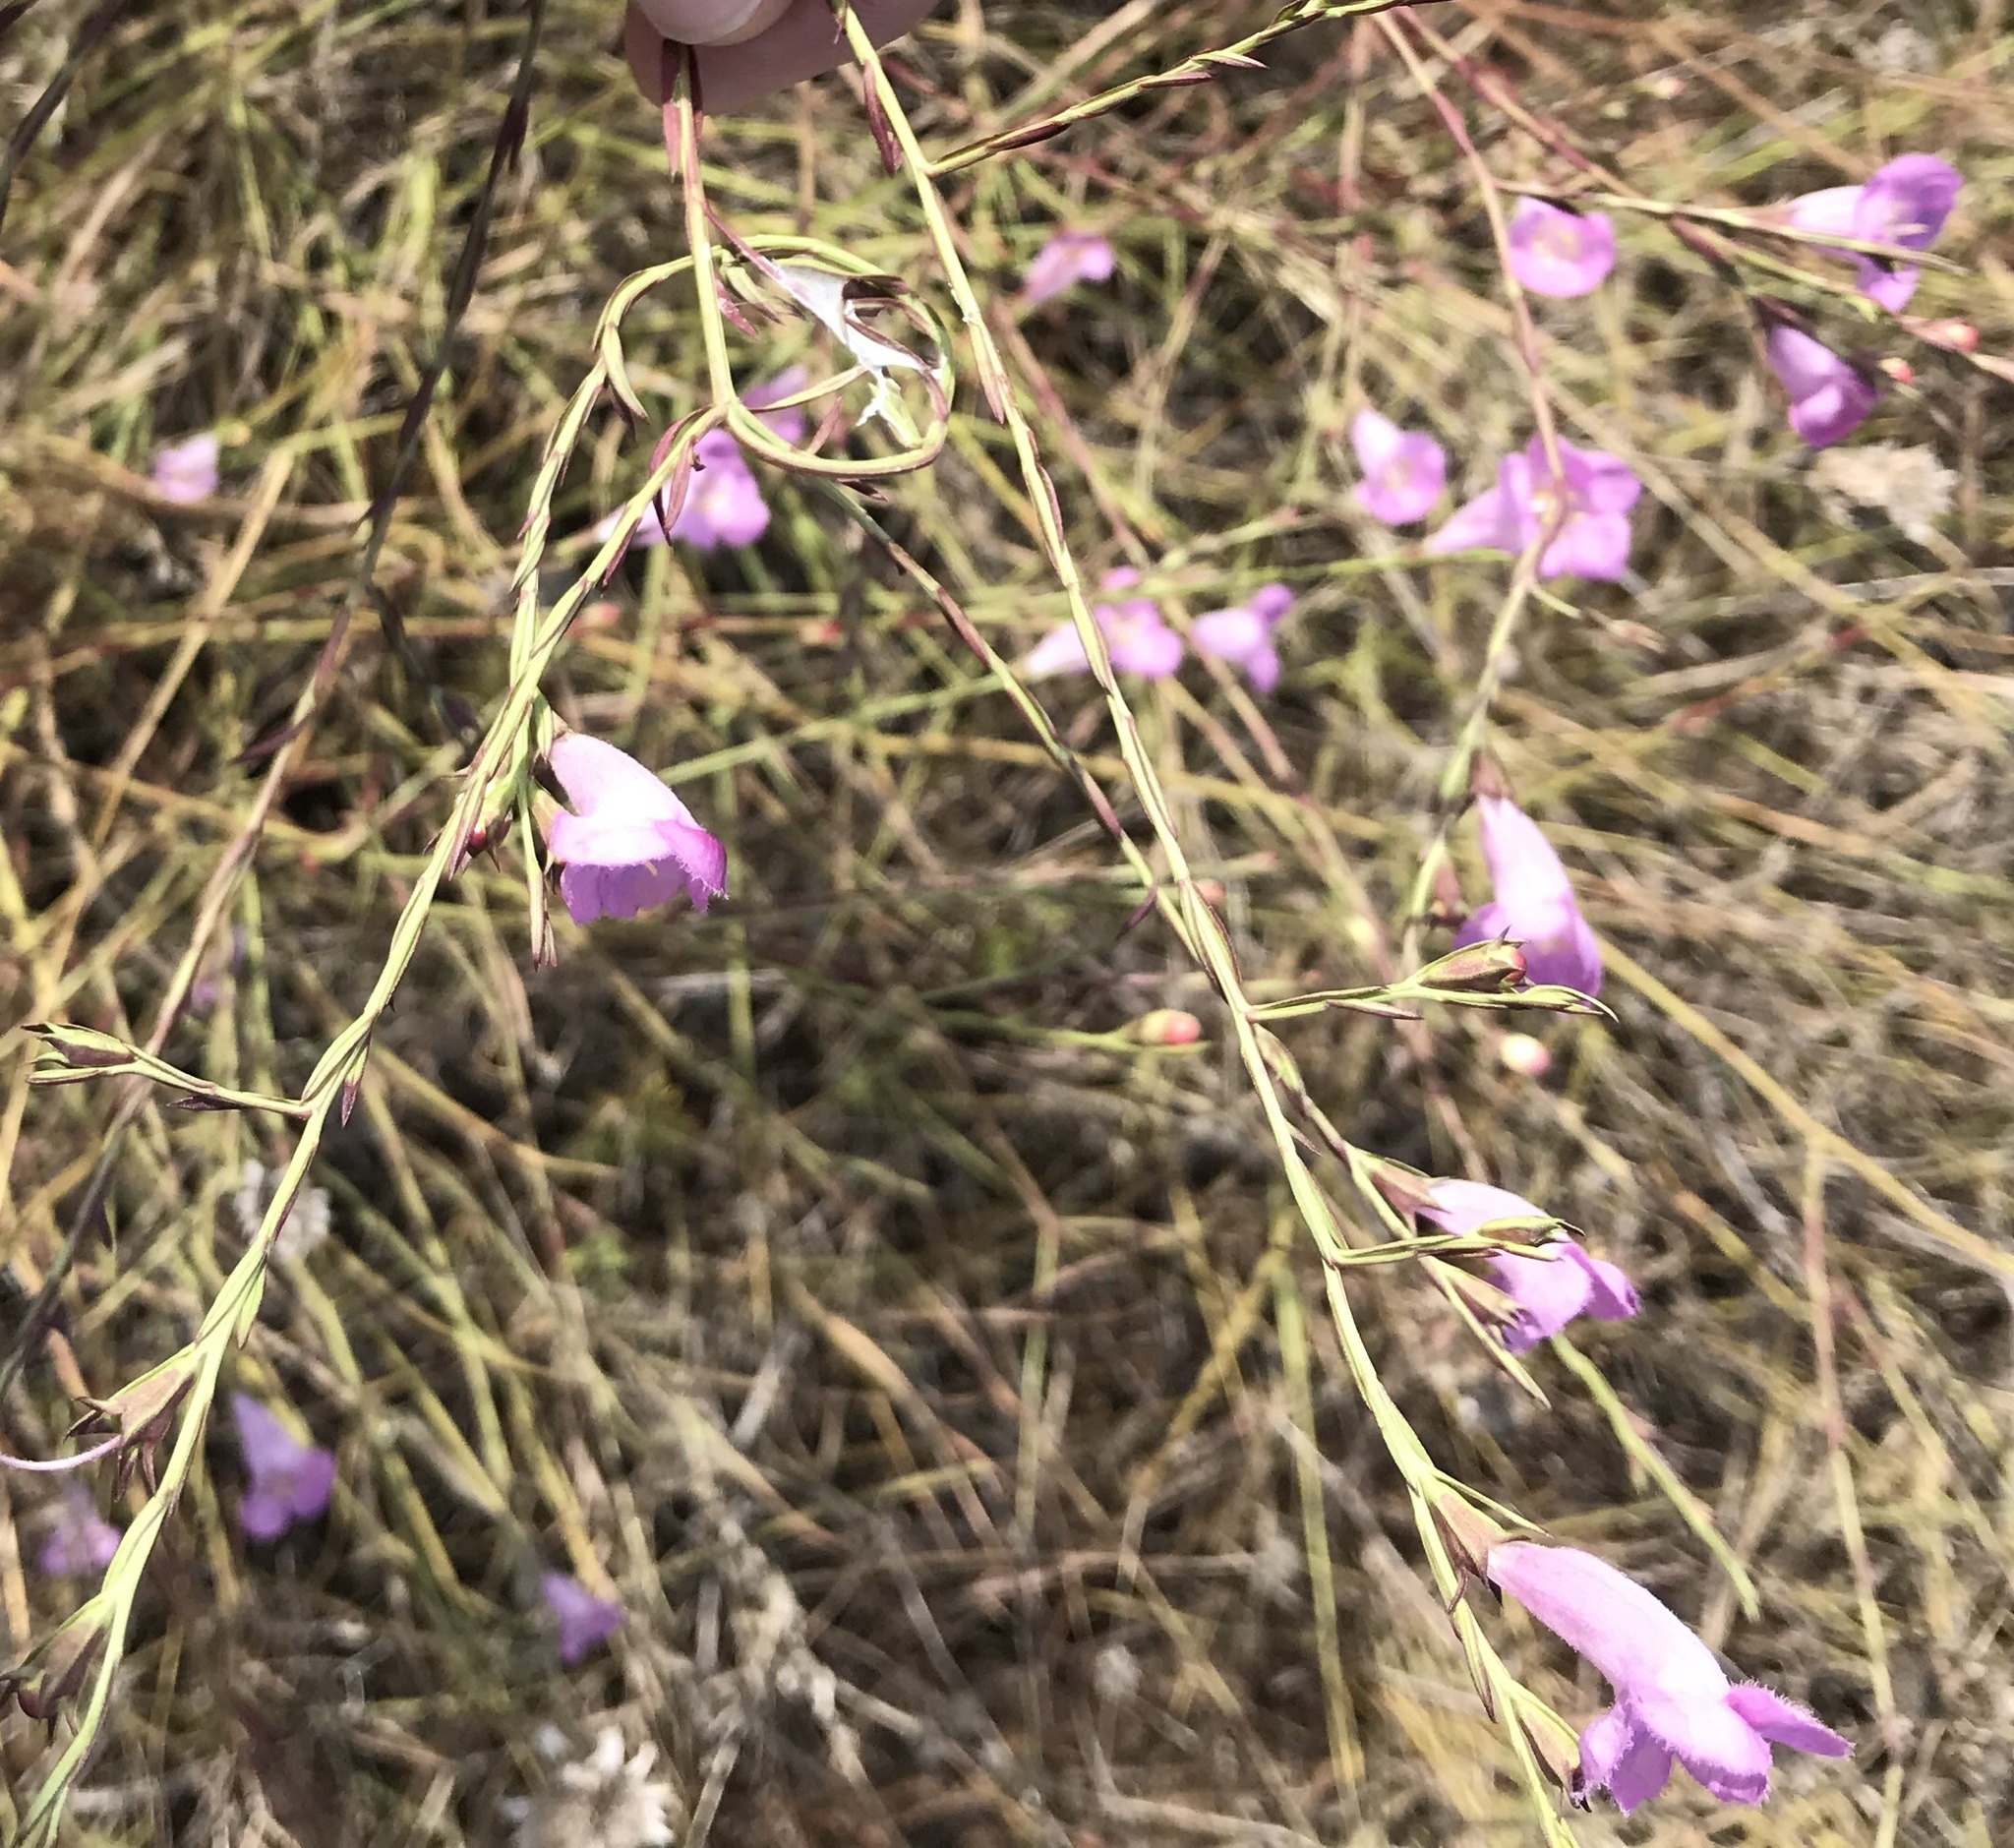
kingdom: Plantae
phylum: Tracheophyta
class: Magnoliopsida
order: Lamiales
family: Orobanchaceae
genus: Agalinis
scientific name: Agalinis heterophylla
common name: Prairie agalinis
